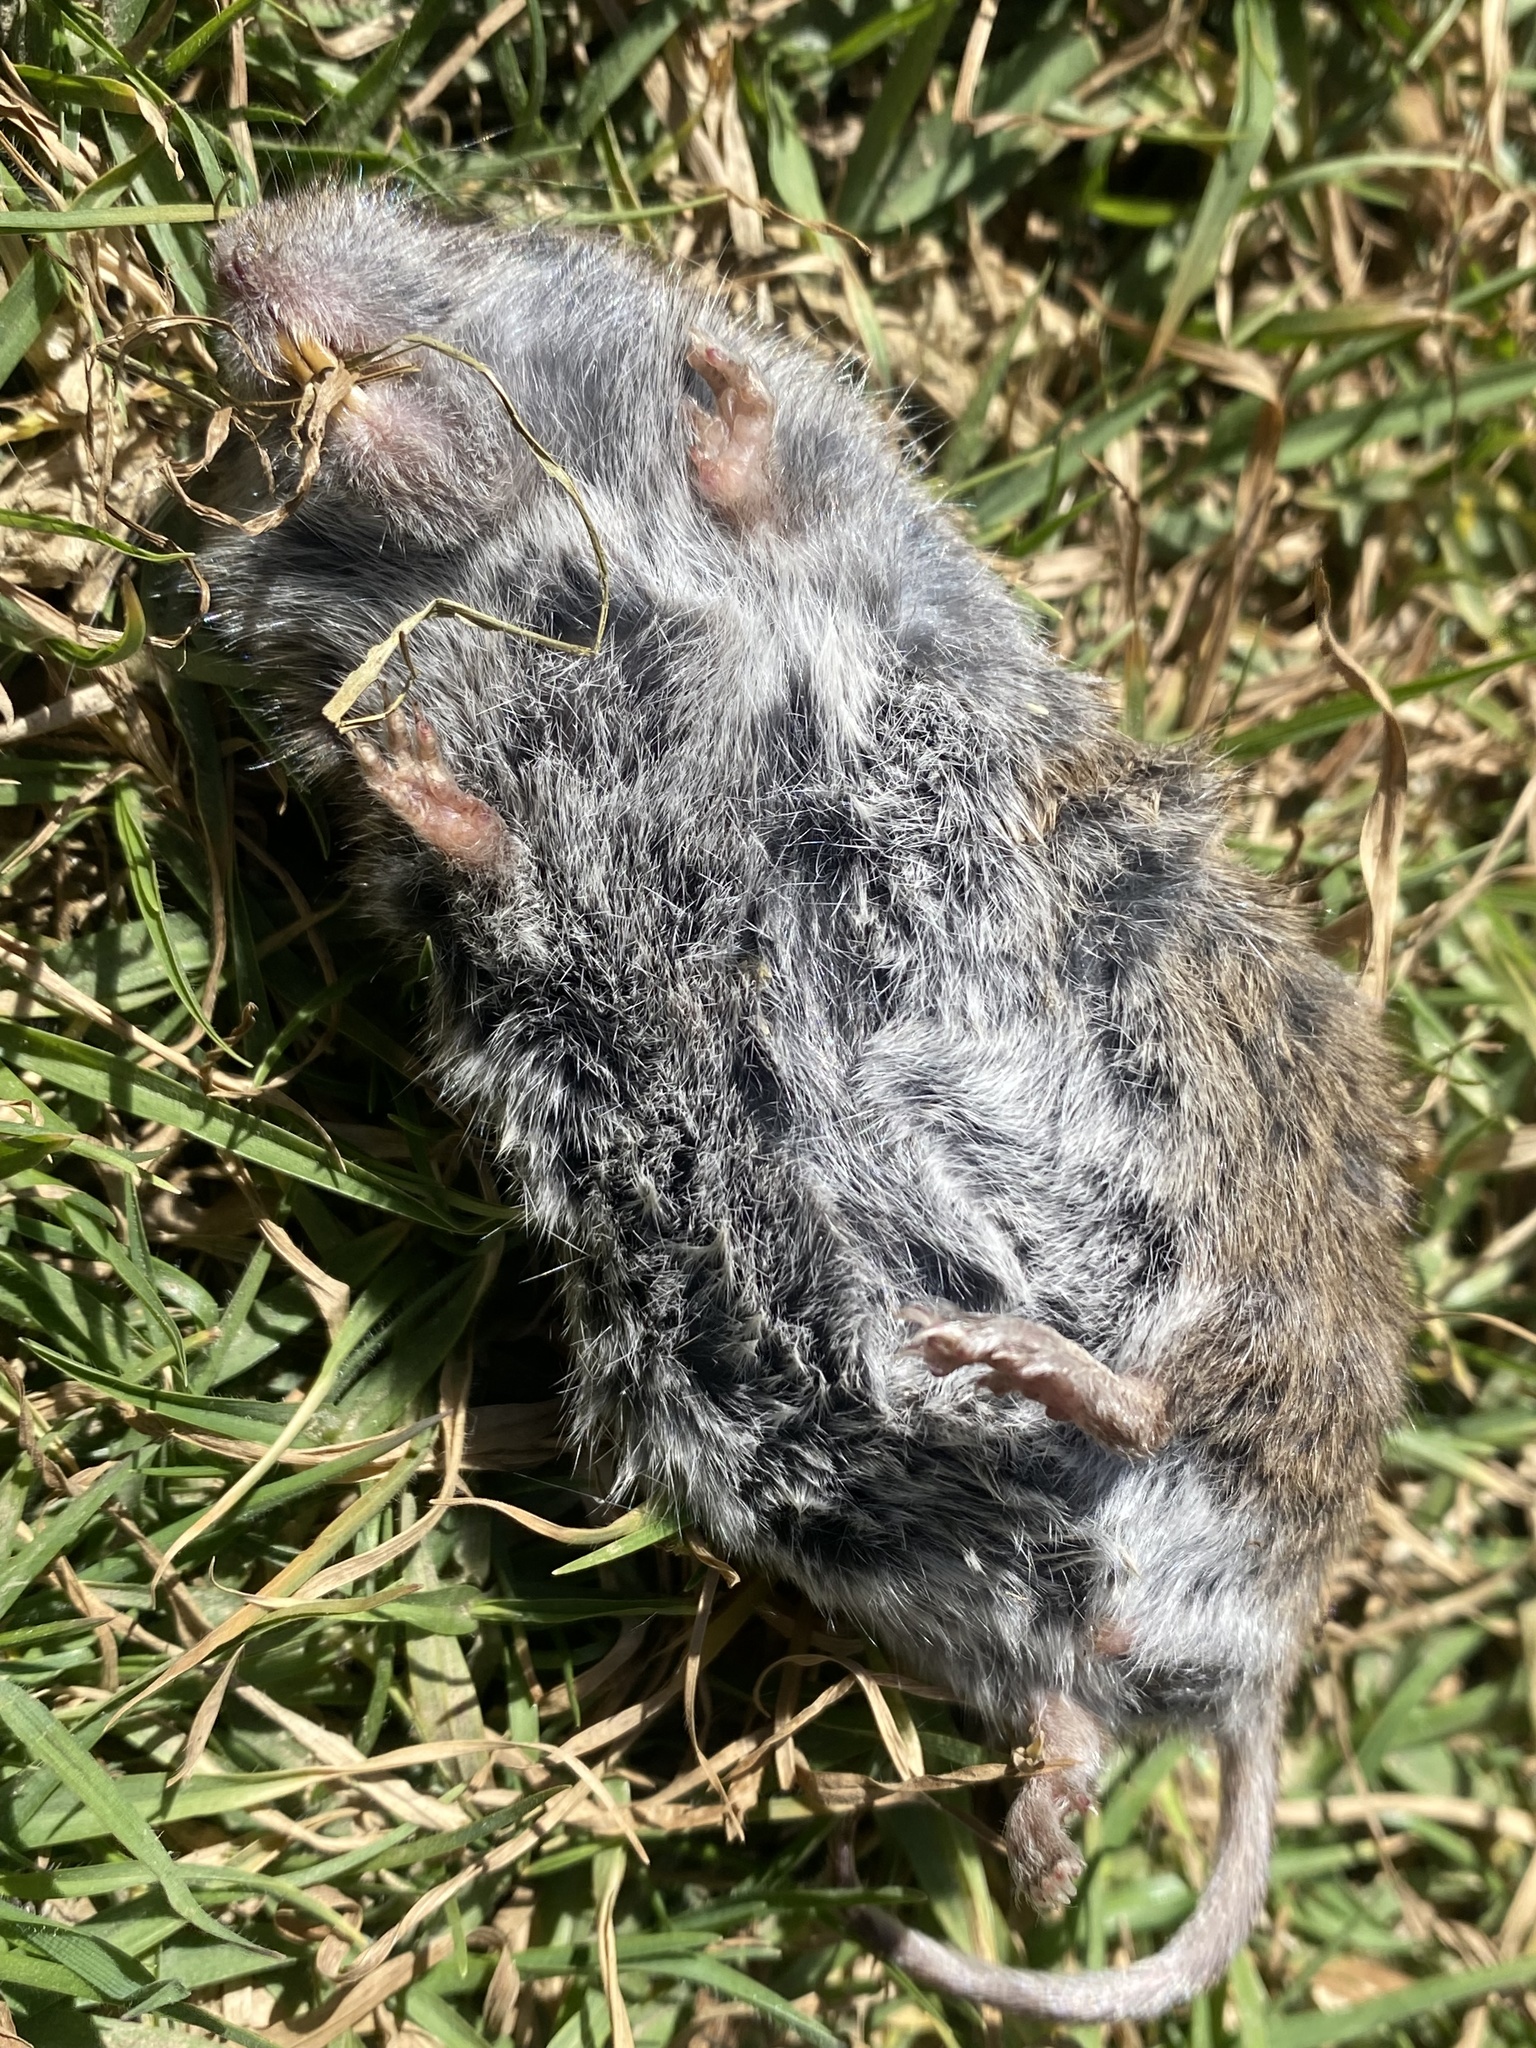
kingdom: Animalia
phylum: Chordata
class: Mammalia
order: Rodentia
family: Cricetidae
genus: Microtus
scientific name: Microtus californicus
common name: California vole
